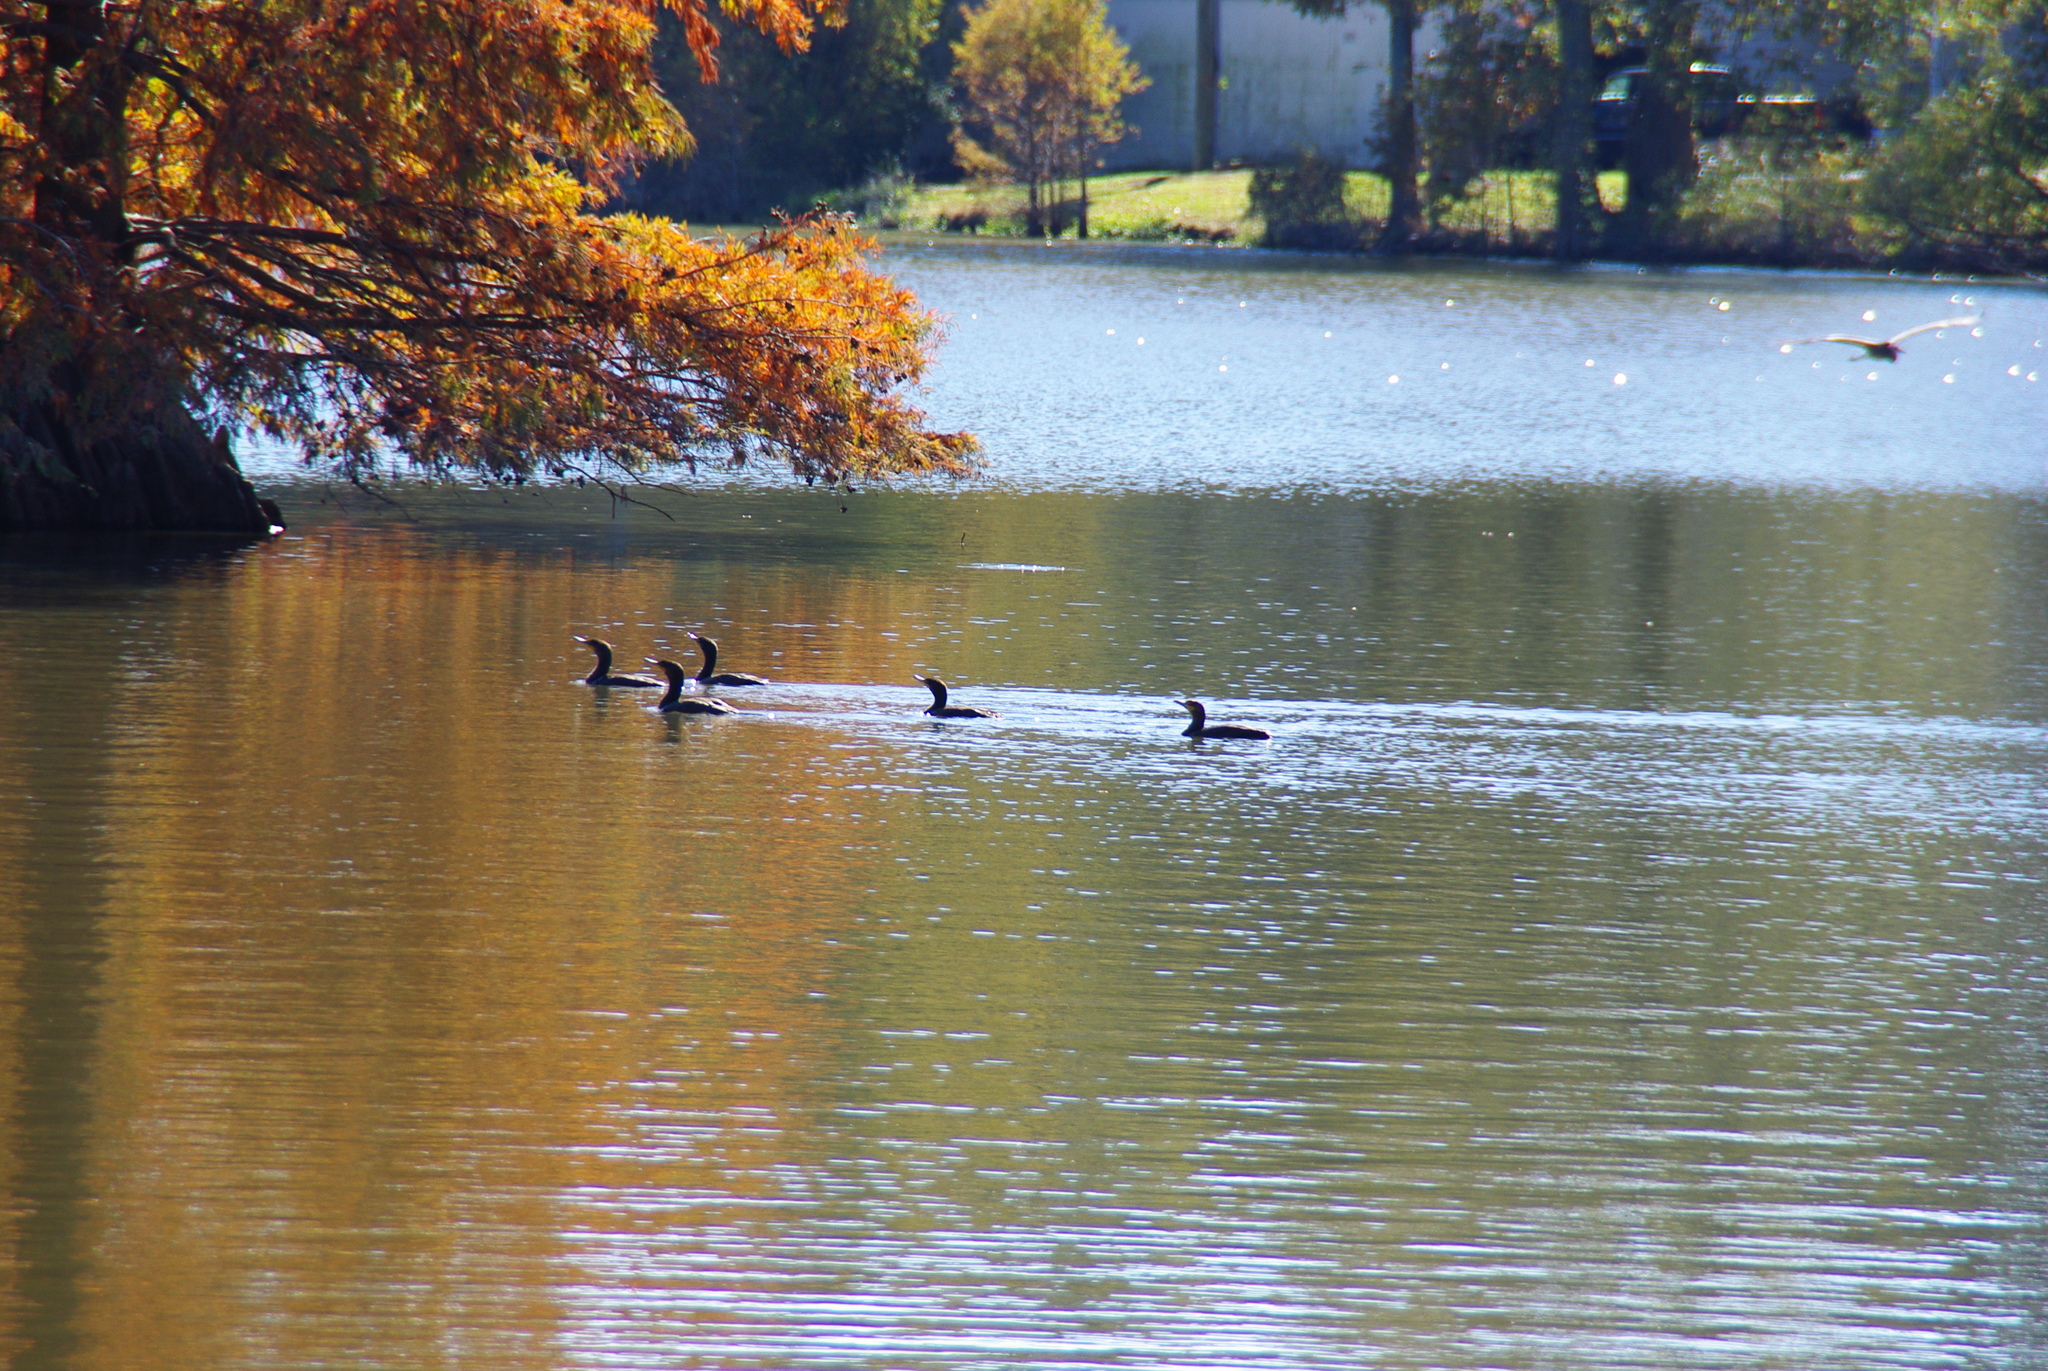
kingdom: Animalia
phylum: Chordata
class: Aves
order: Suliformes
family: Phalacrocoracidae
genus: Phalacrocorax
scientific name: Phalacrocorax auritus
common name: Double-crested cormorant
